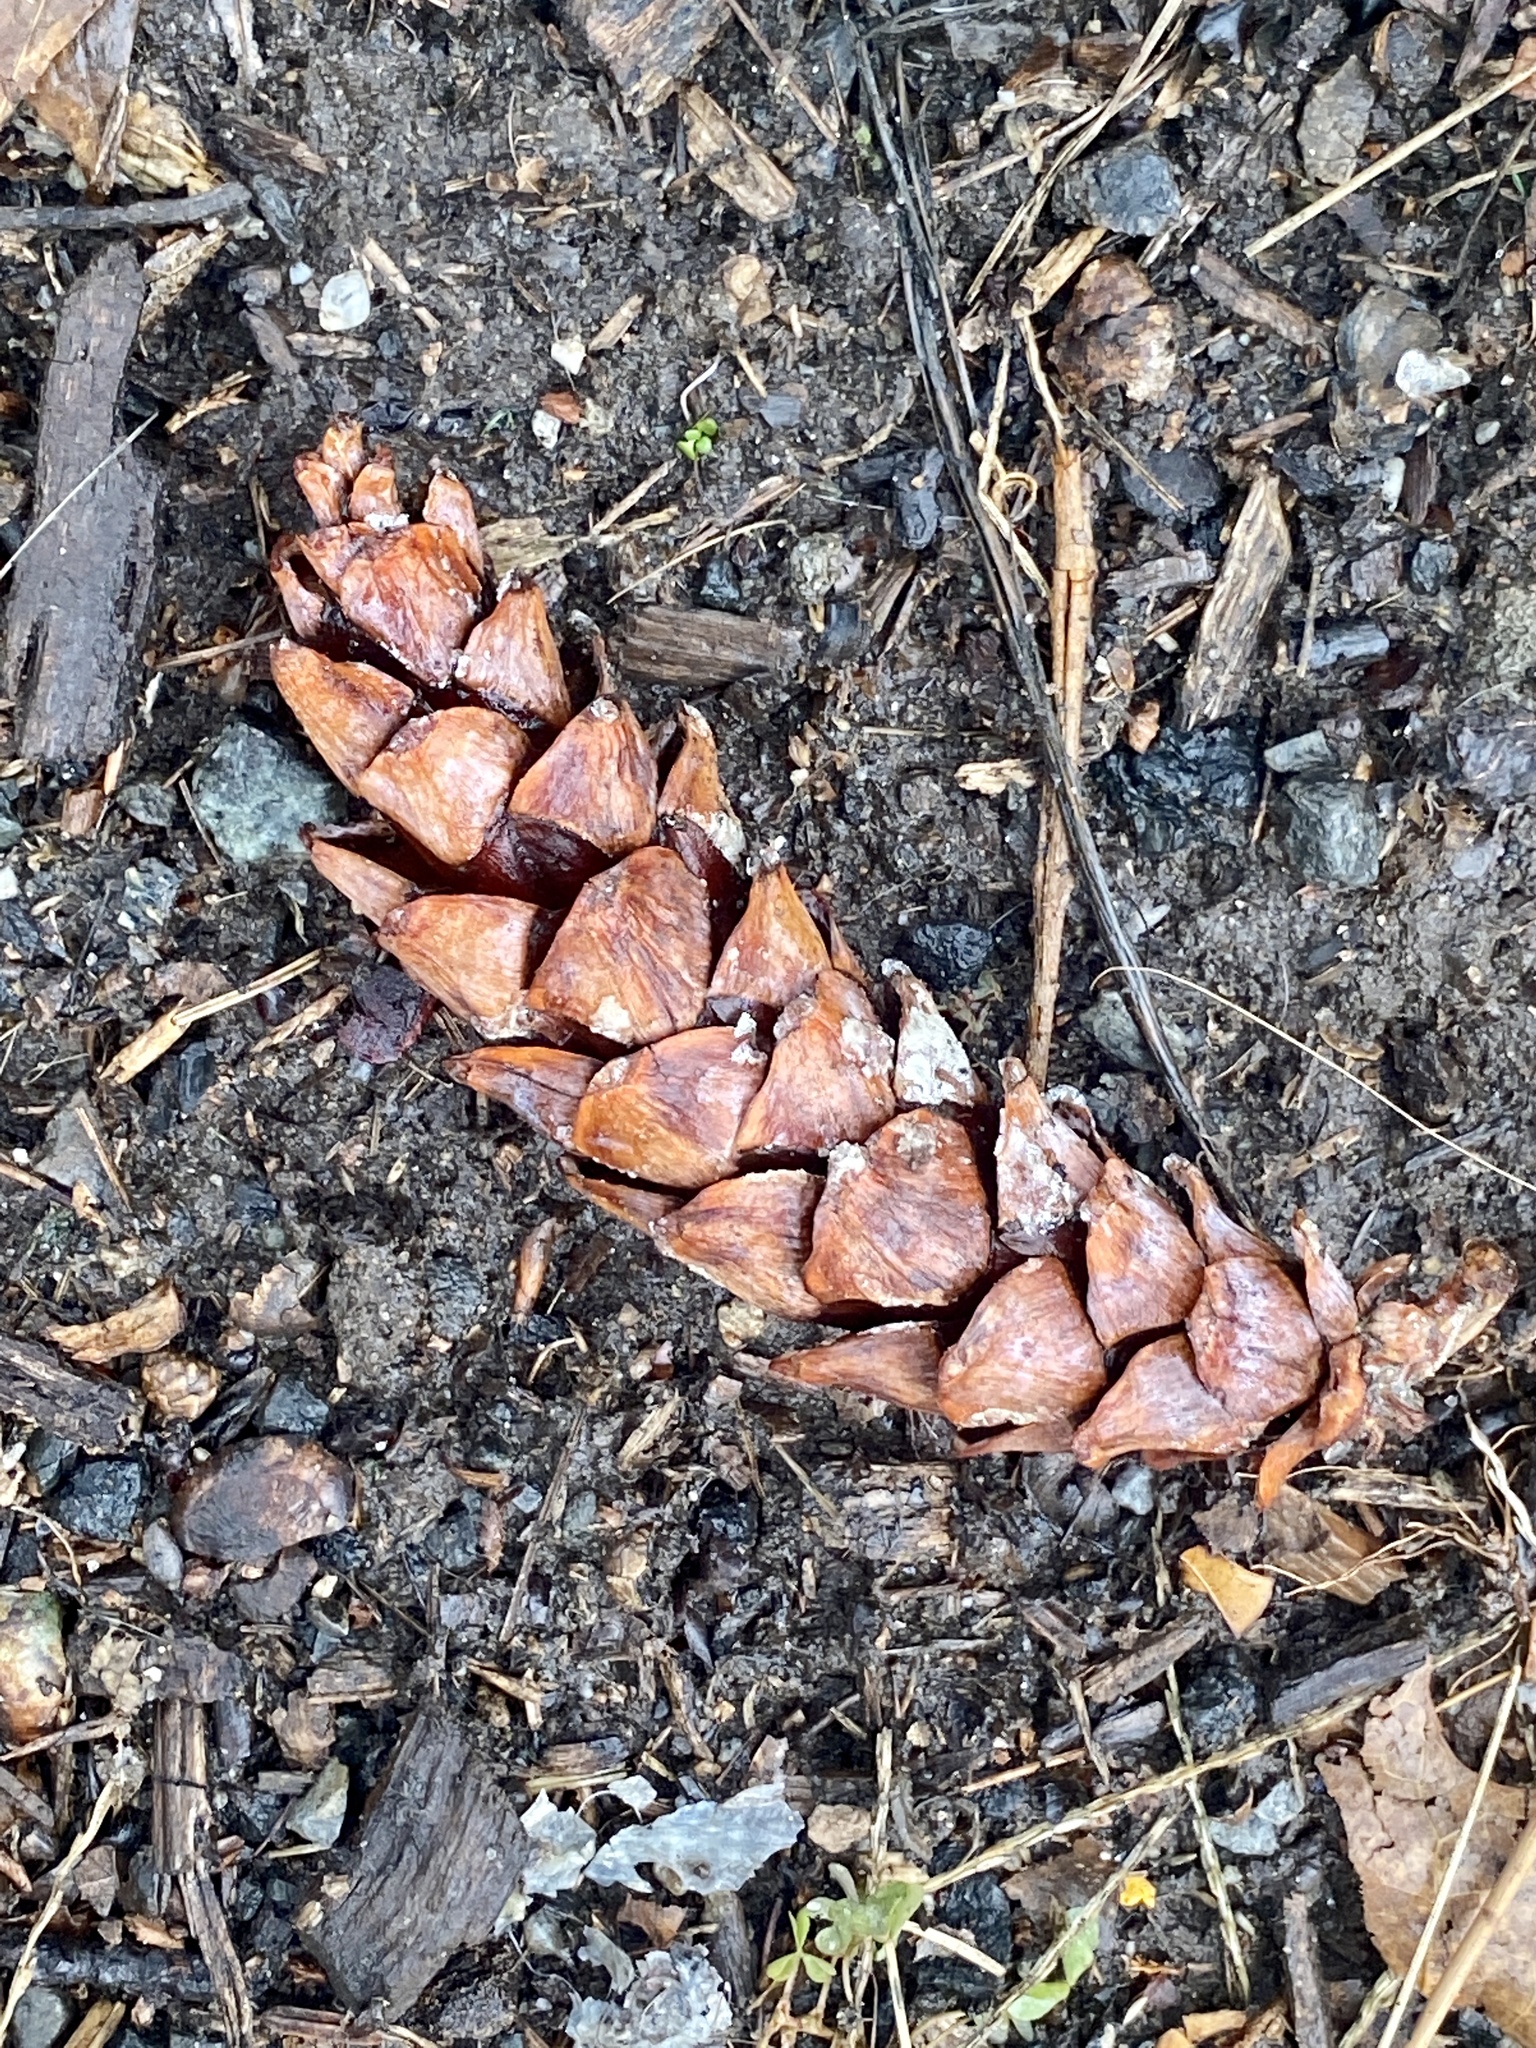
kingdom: Plantae
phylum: Tracheophyta
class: Pinopsida
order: Pinales
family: Pinaceae
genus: Pinus
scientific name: Pinus strobus
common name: Weymouth pine
